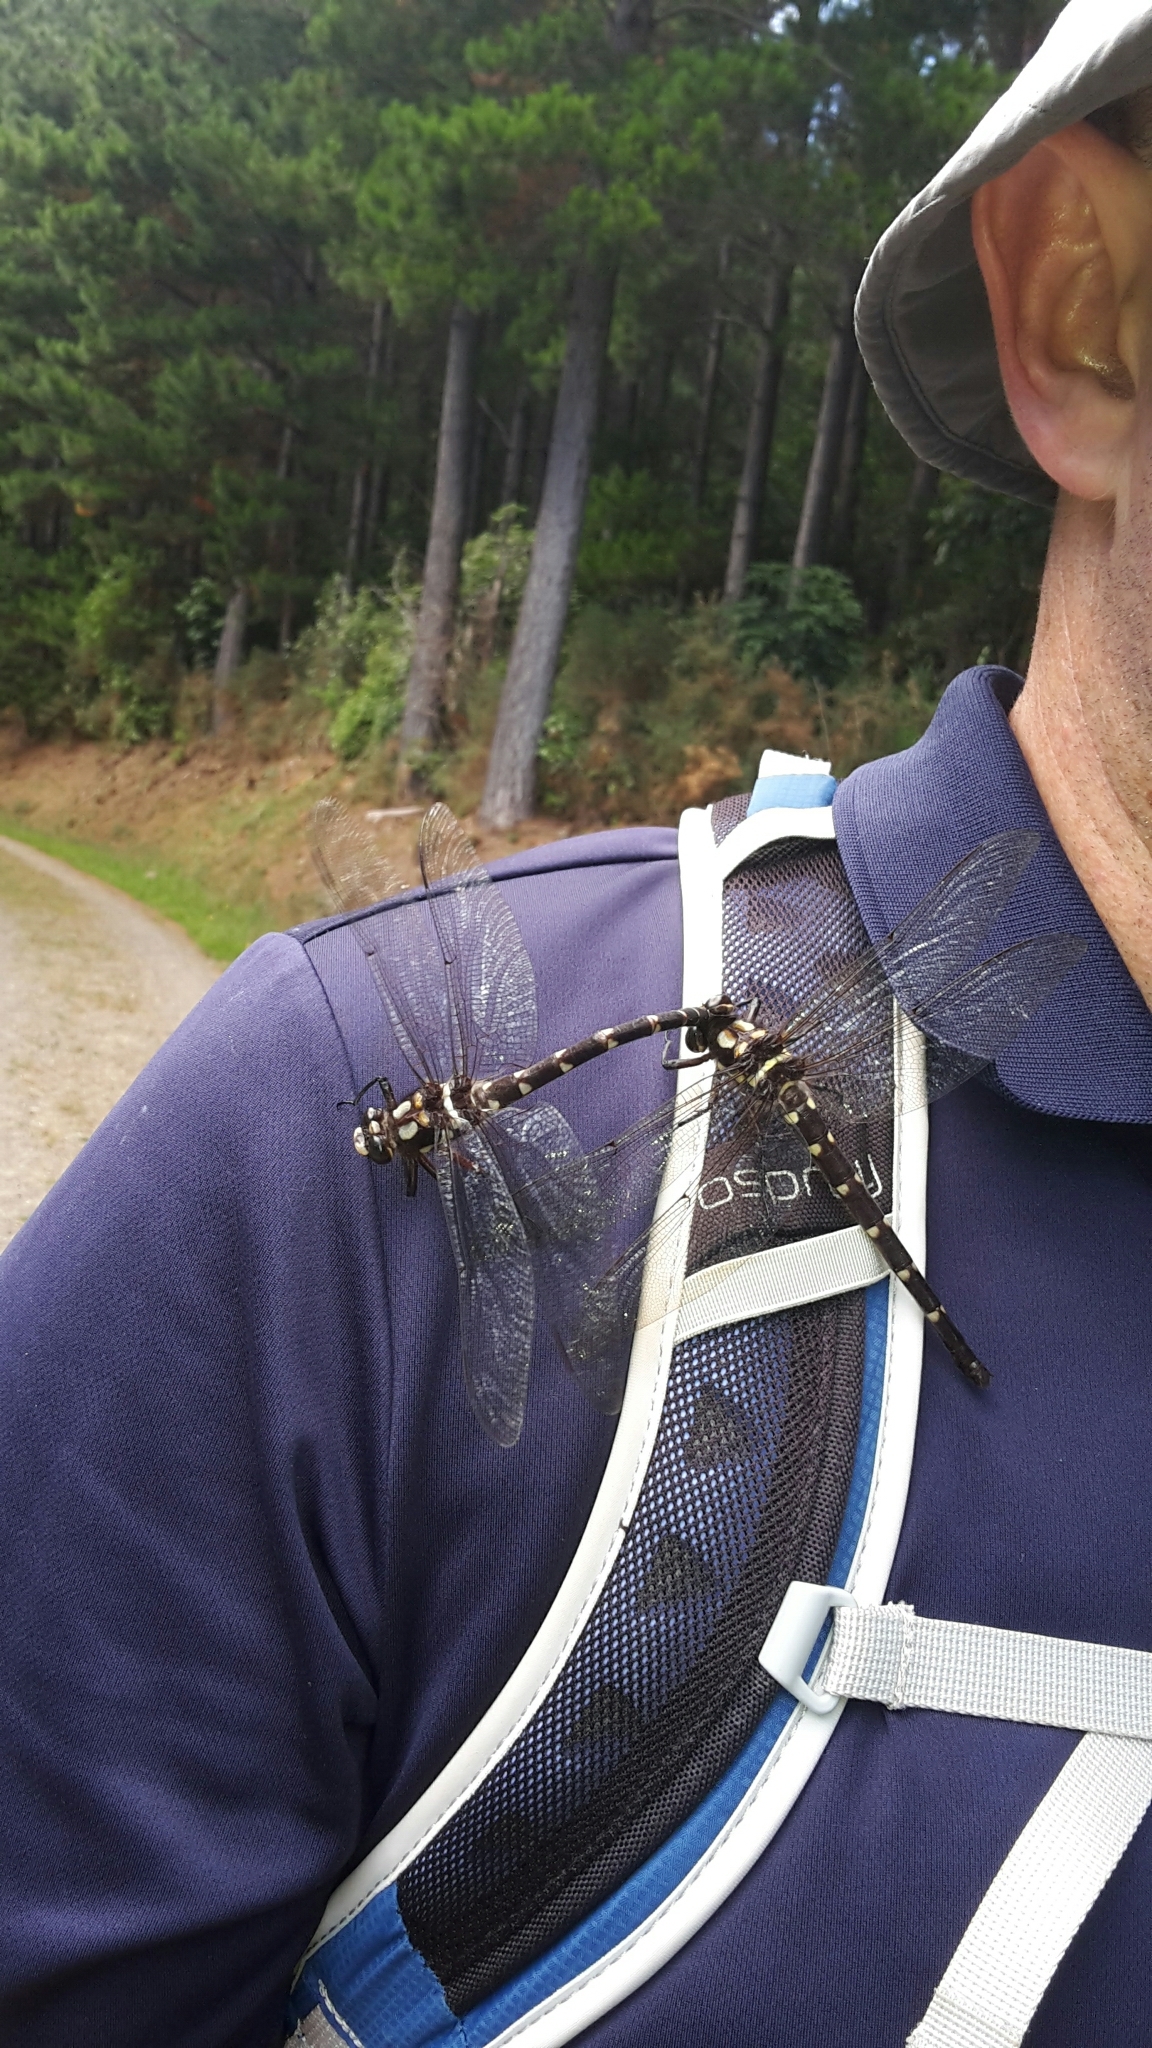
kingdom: Animalia
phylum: Arthropoda
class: Insecta
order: Odonata
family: Petaluridae
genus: Uropetala
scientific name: Uropetala carovei
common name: Bush giant dragonfly
